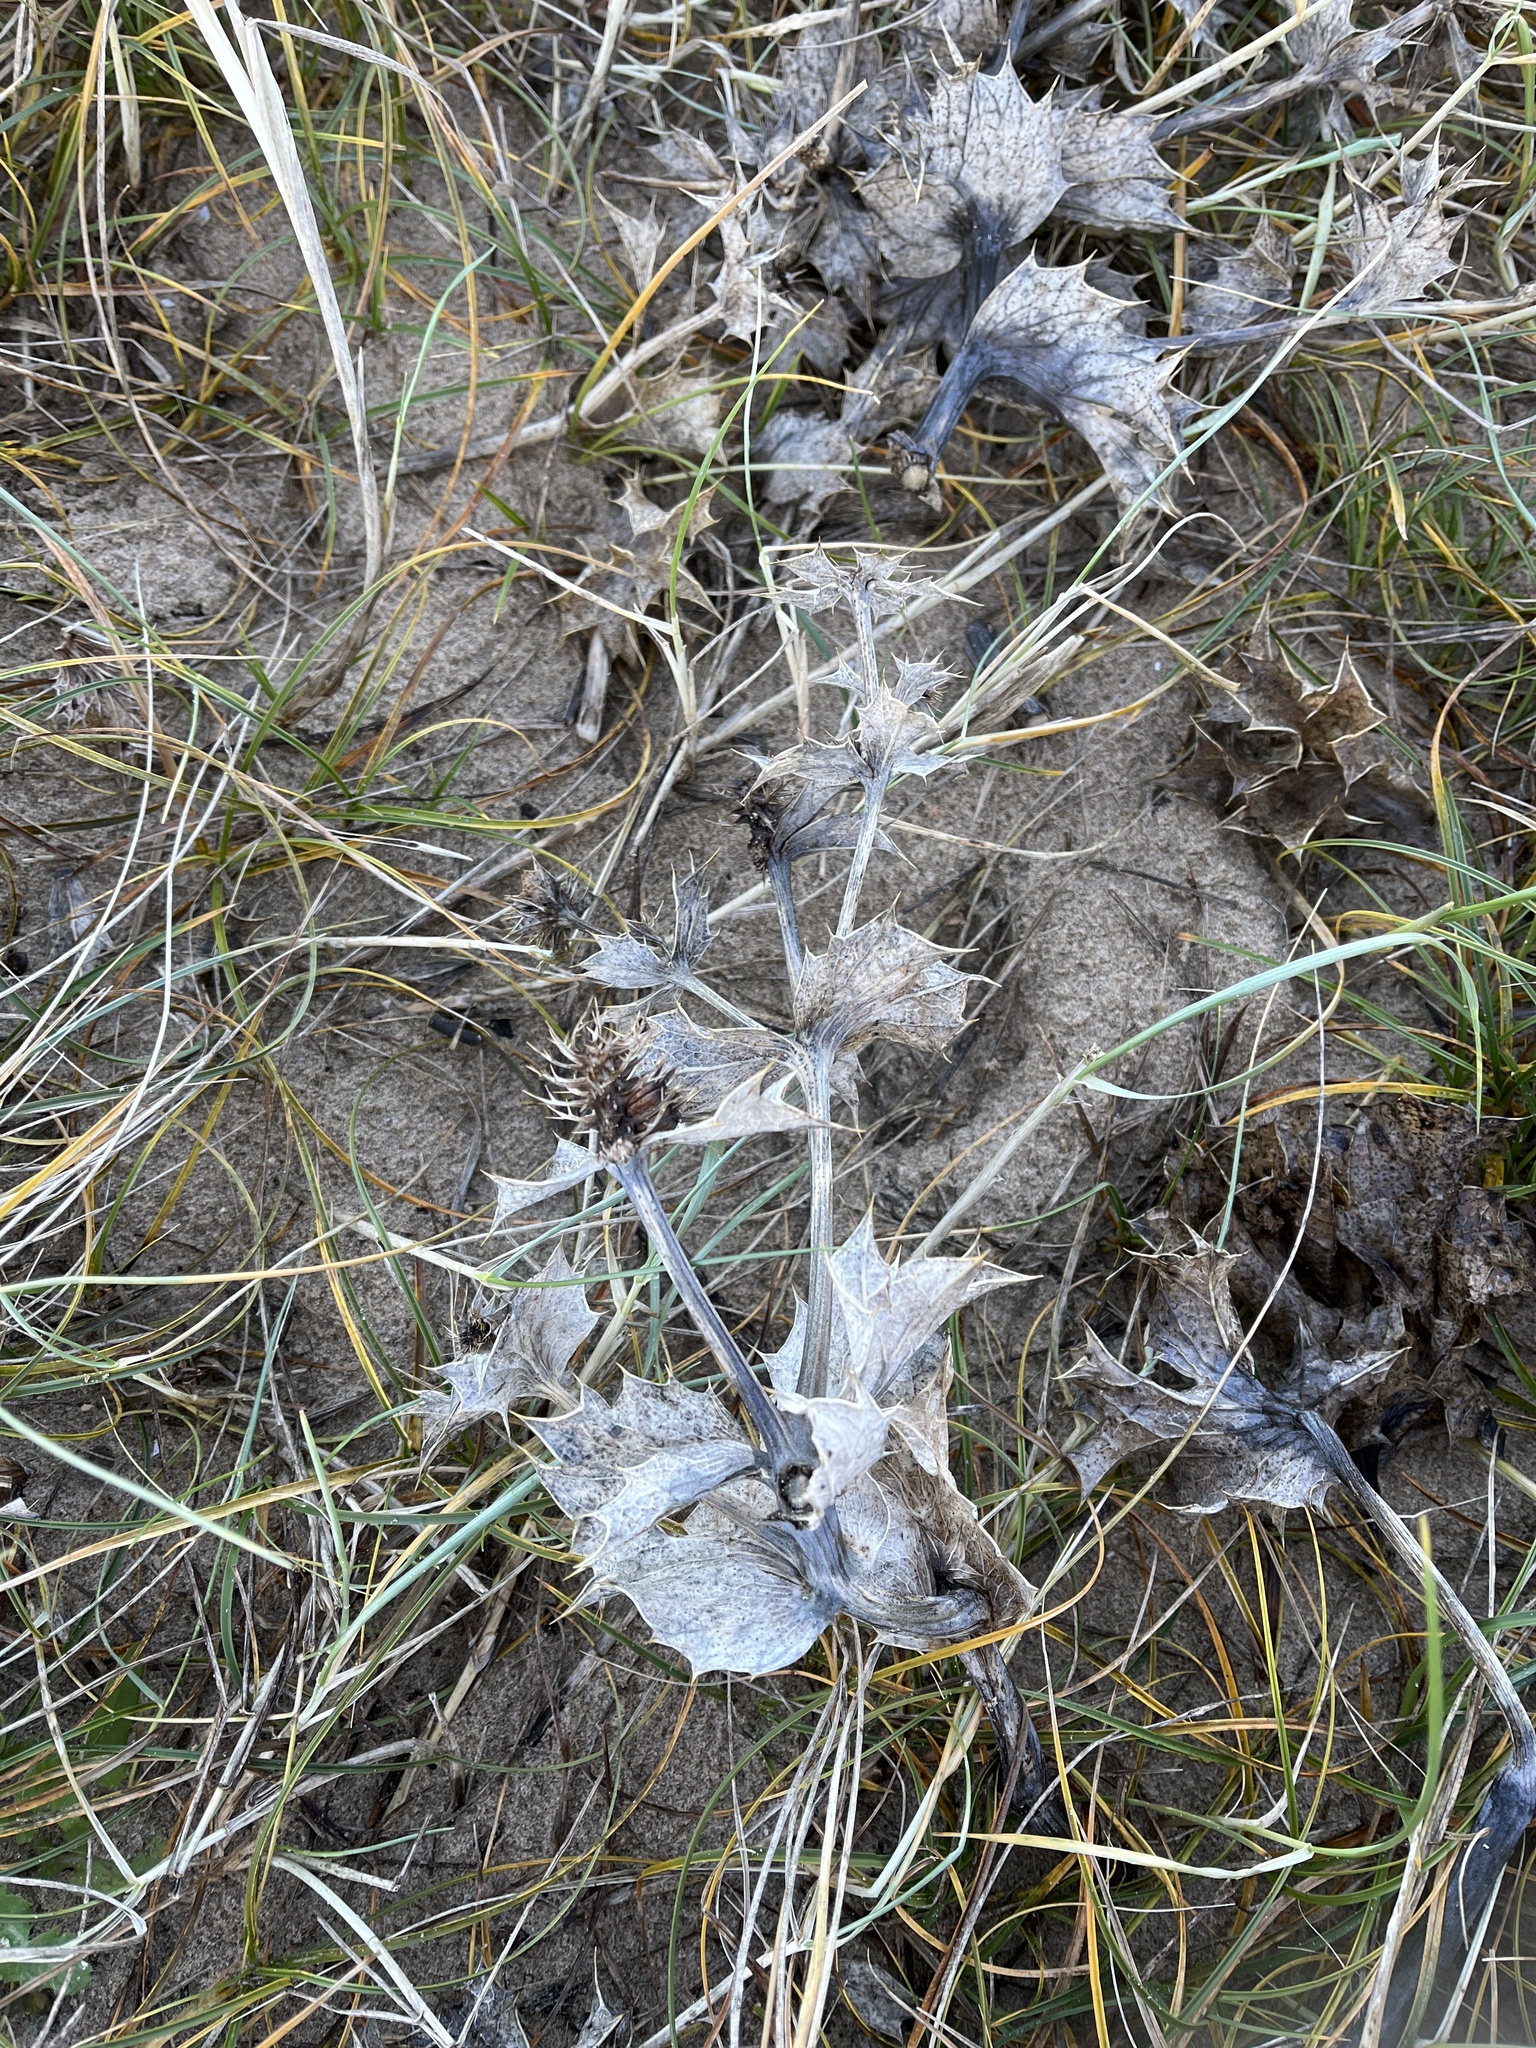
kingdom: Plantae
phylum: Tracheophyta
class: Magnoliopsida
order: Apiales
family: Apiaceae
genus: Eryngium
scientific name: Eryngium maritimum
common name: Sea-holly
